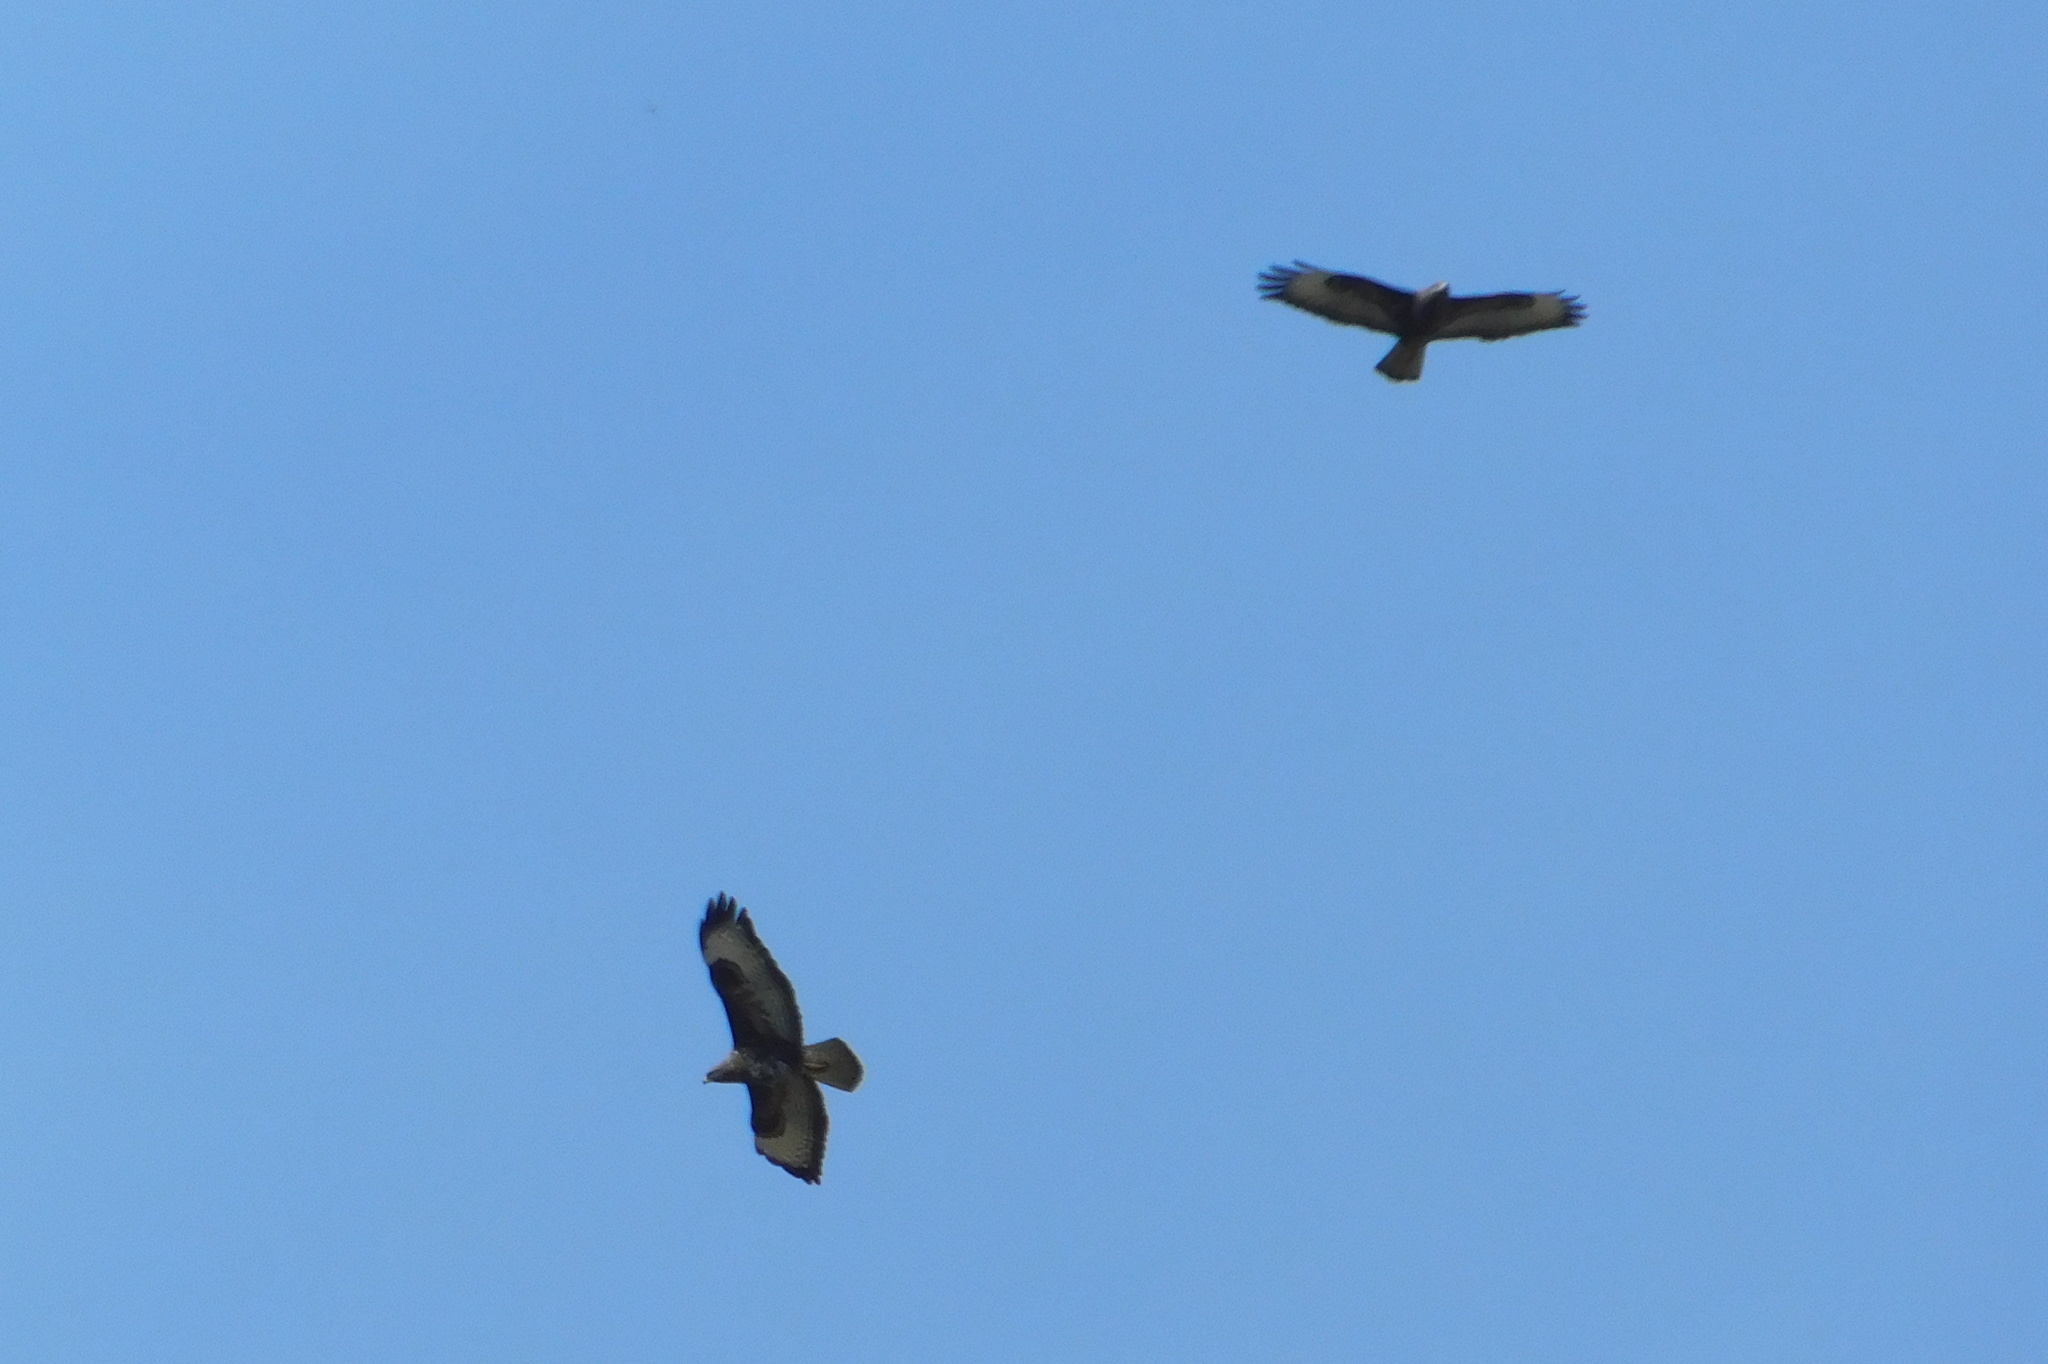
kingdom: Animalia
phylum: Chordata
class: Aves
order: Accipitriformes
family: Accipitridae
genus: Buteo
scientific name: Buteo buteo
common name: Common buzzard
